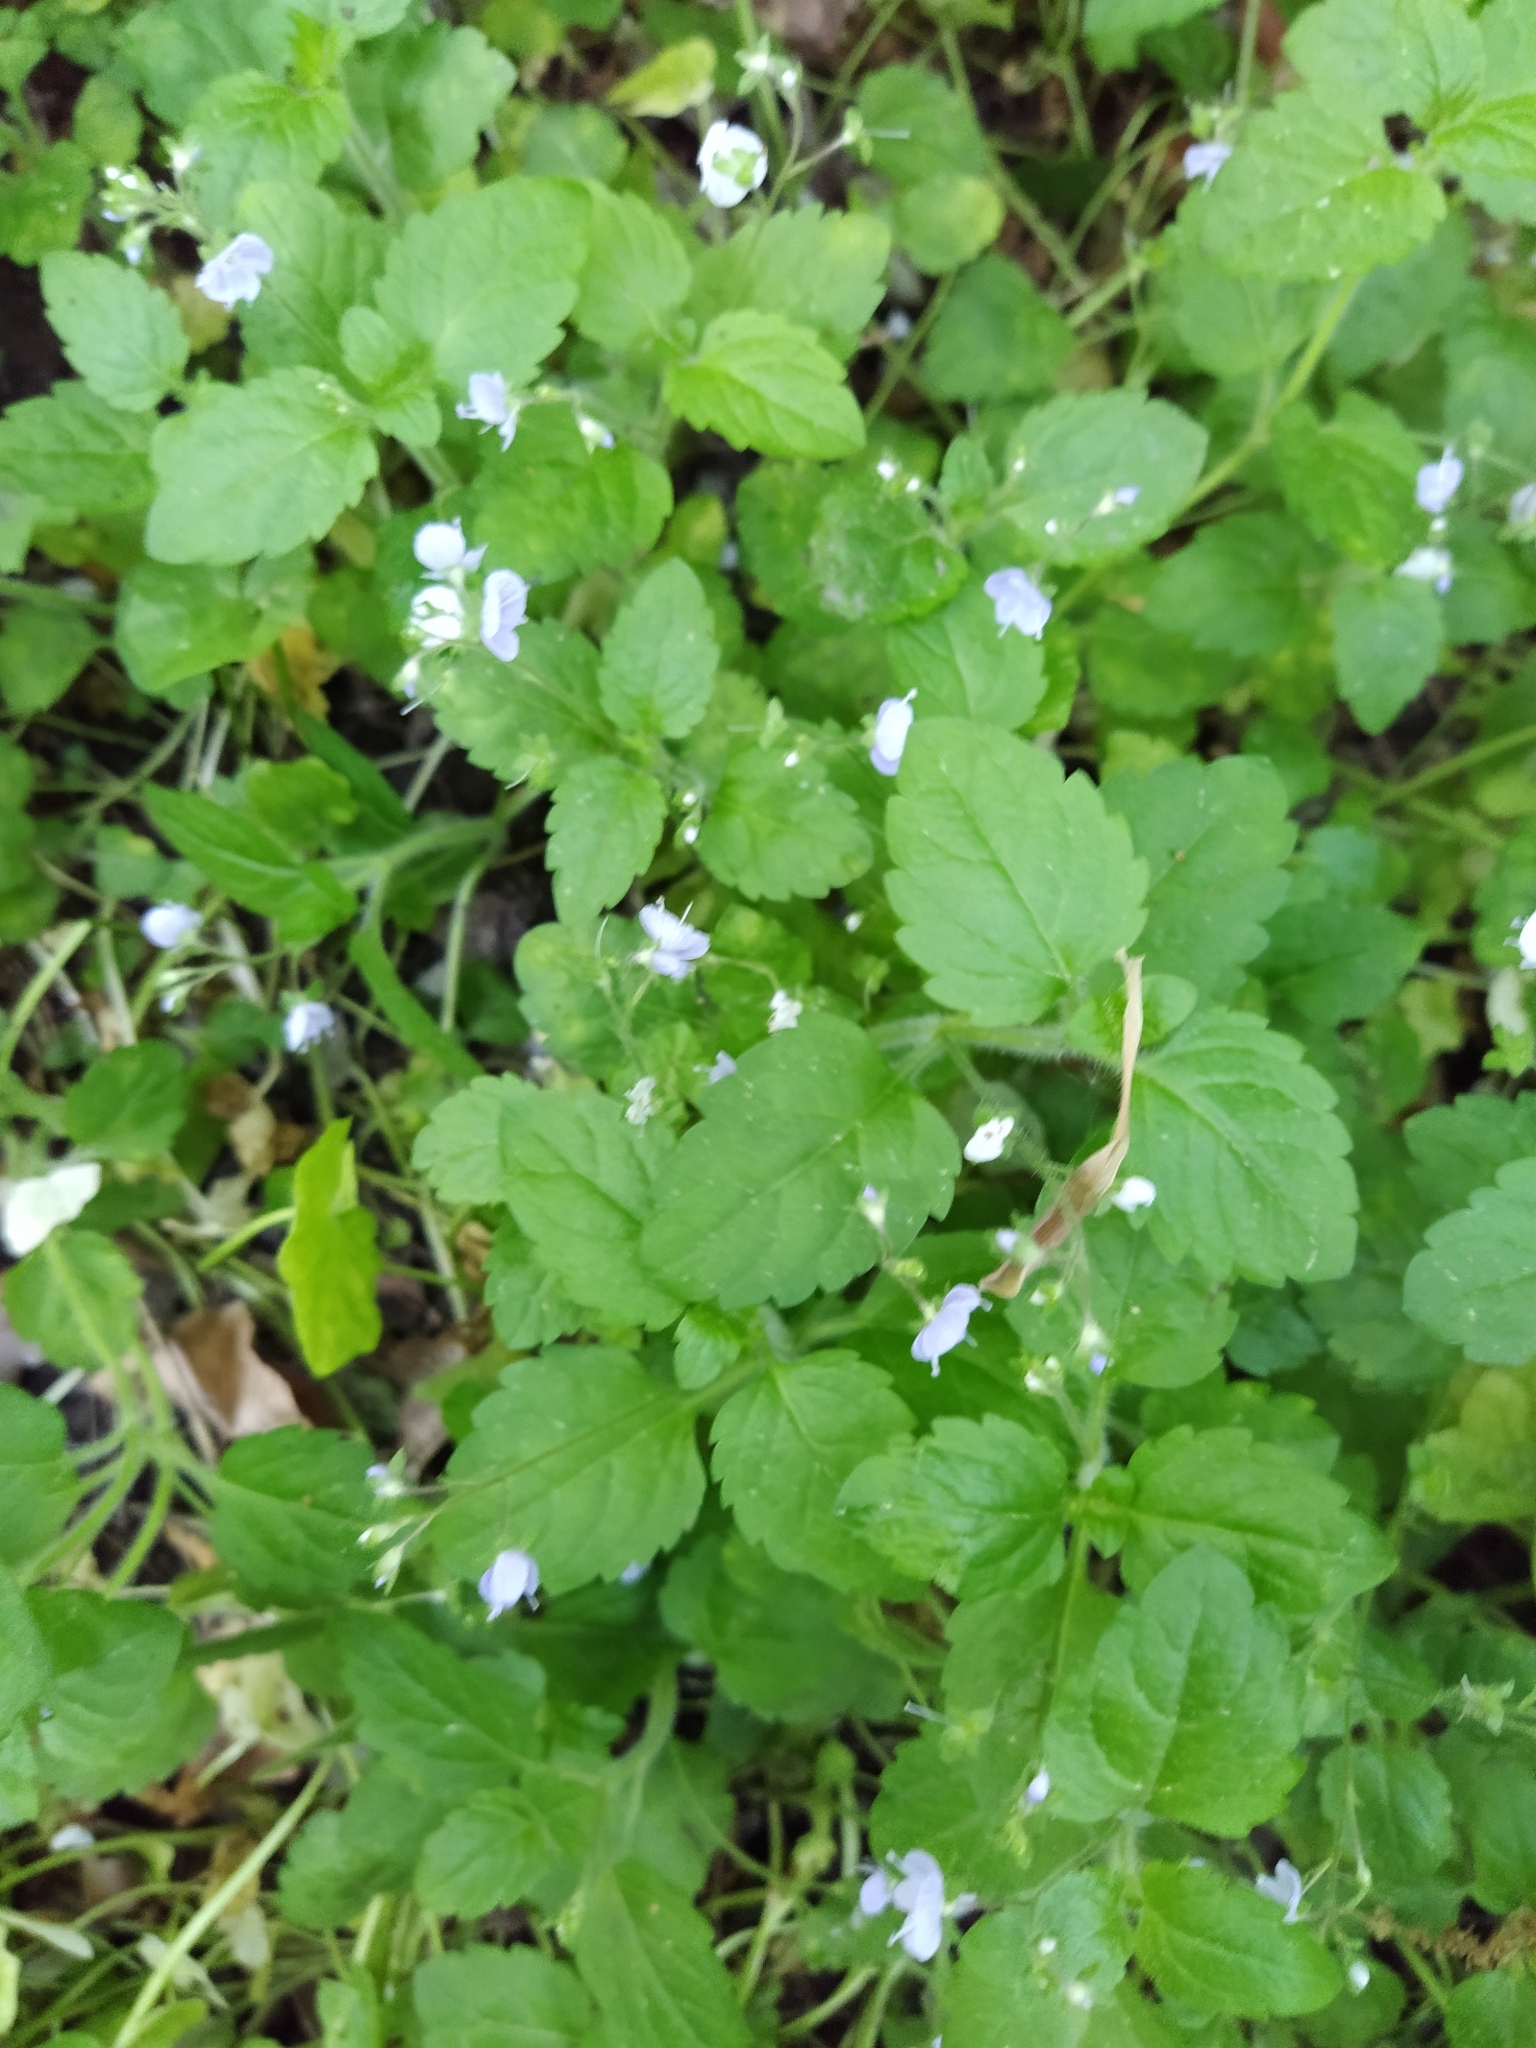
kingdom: Plantae
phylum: Tracheophyta
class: Magnoliopsida
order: Lamiales
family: Plantaginaceae
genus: Veronica
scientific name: Veronica montana
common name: Wood speedwell
